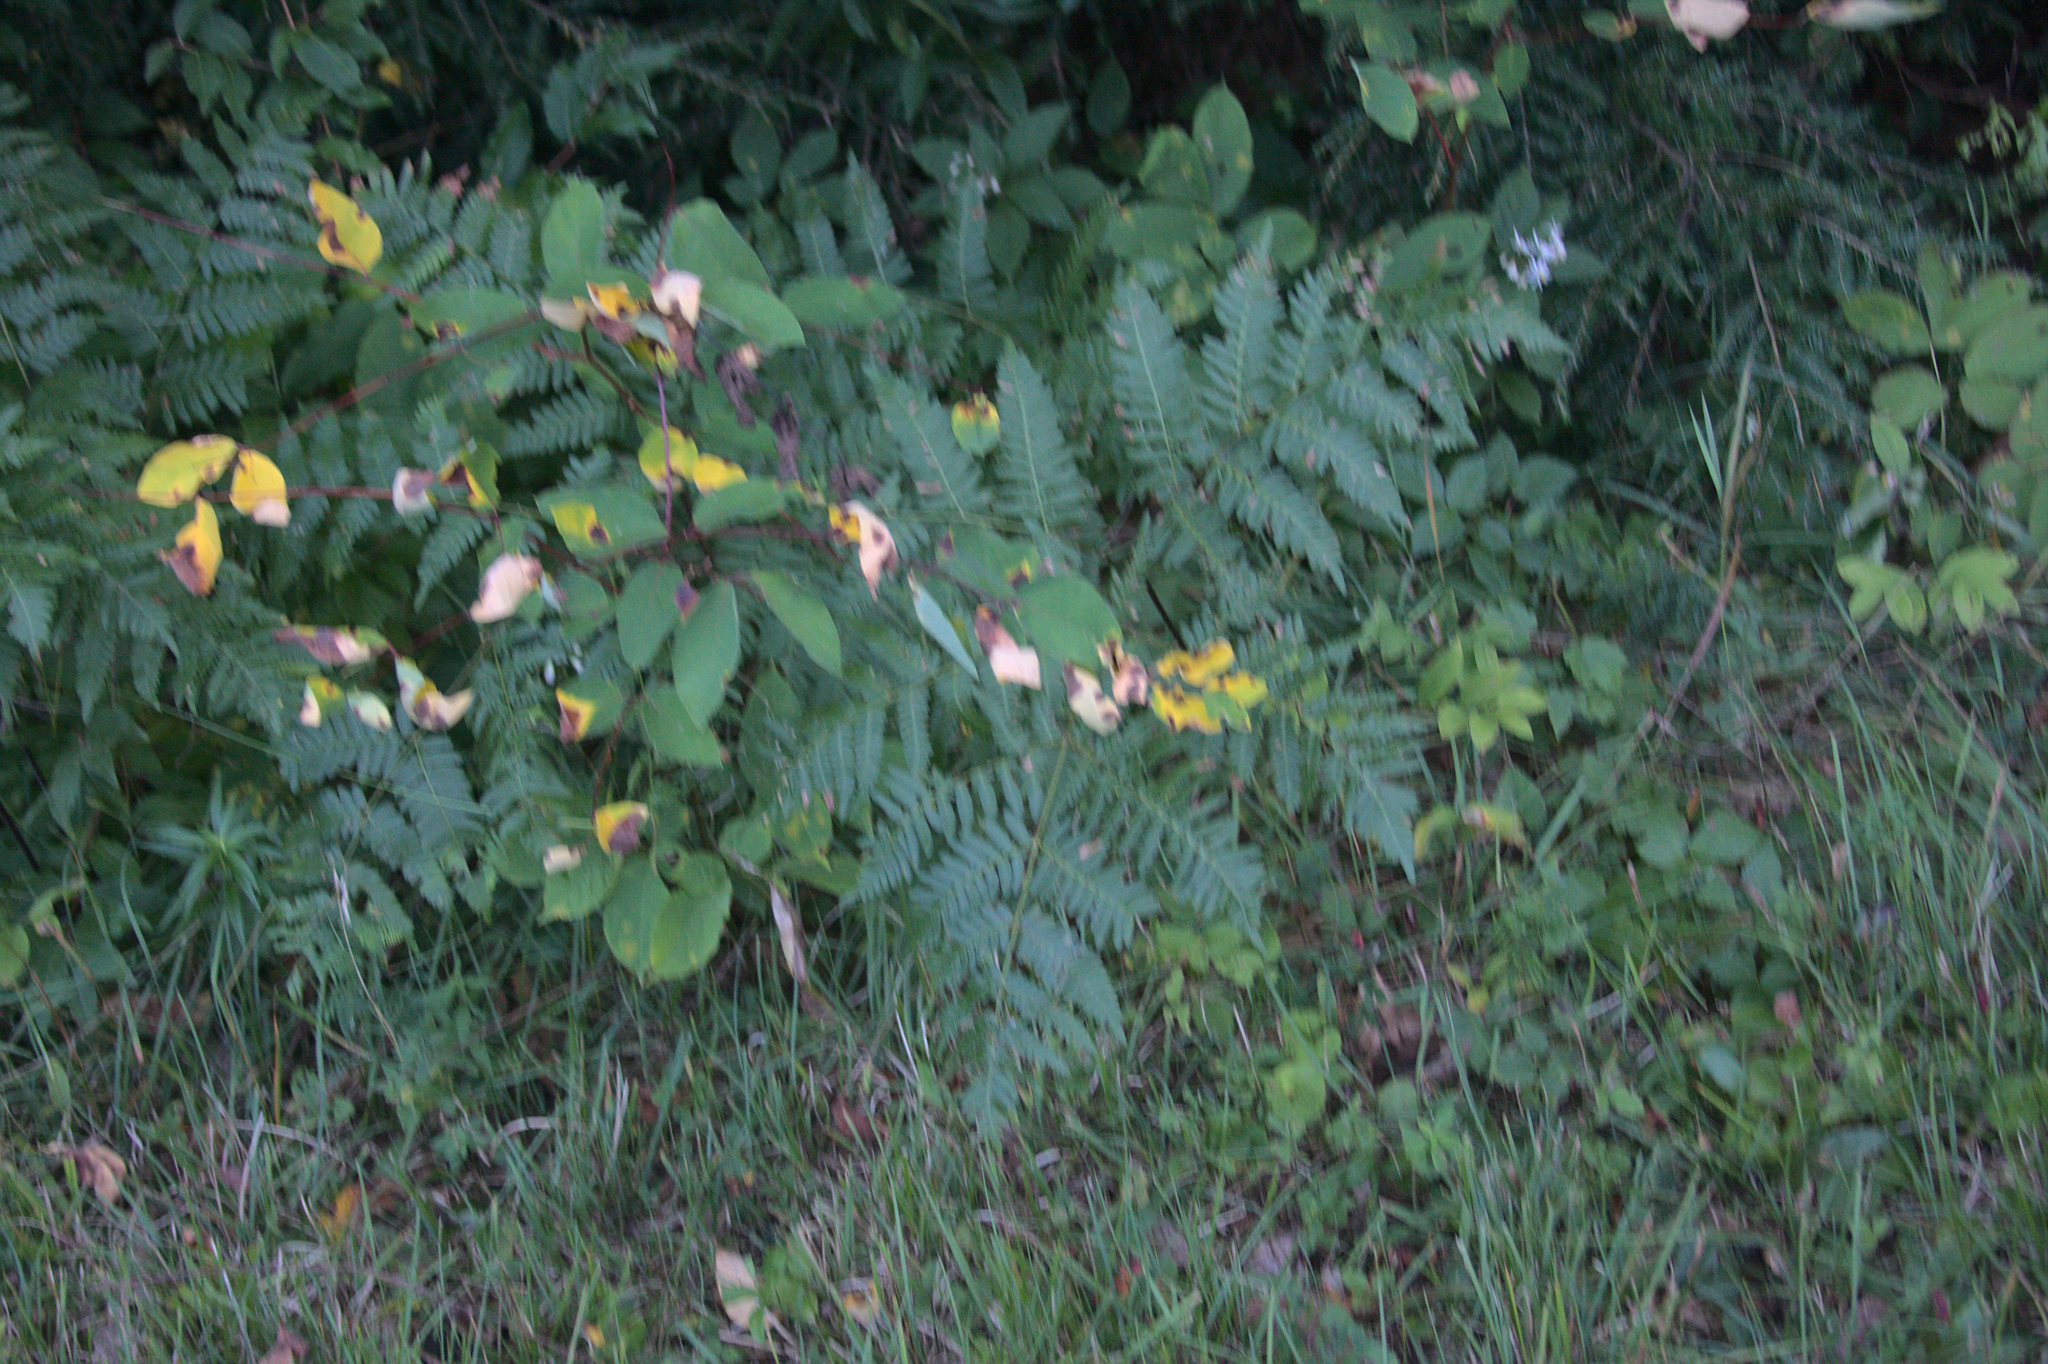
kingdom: Plantae
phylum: Tracheophyta
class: Polypodiopsida
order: Polypodiales
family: Dennstaedtiaceae
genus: Pteridium
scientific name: Pteridium aquilinum
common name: Bracken
